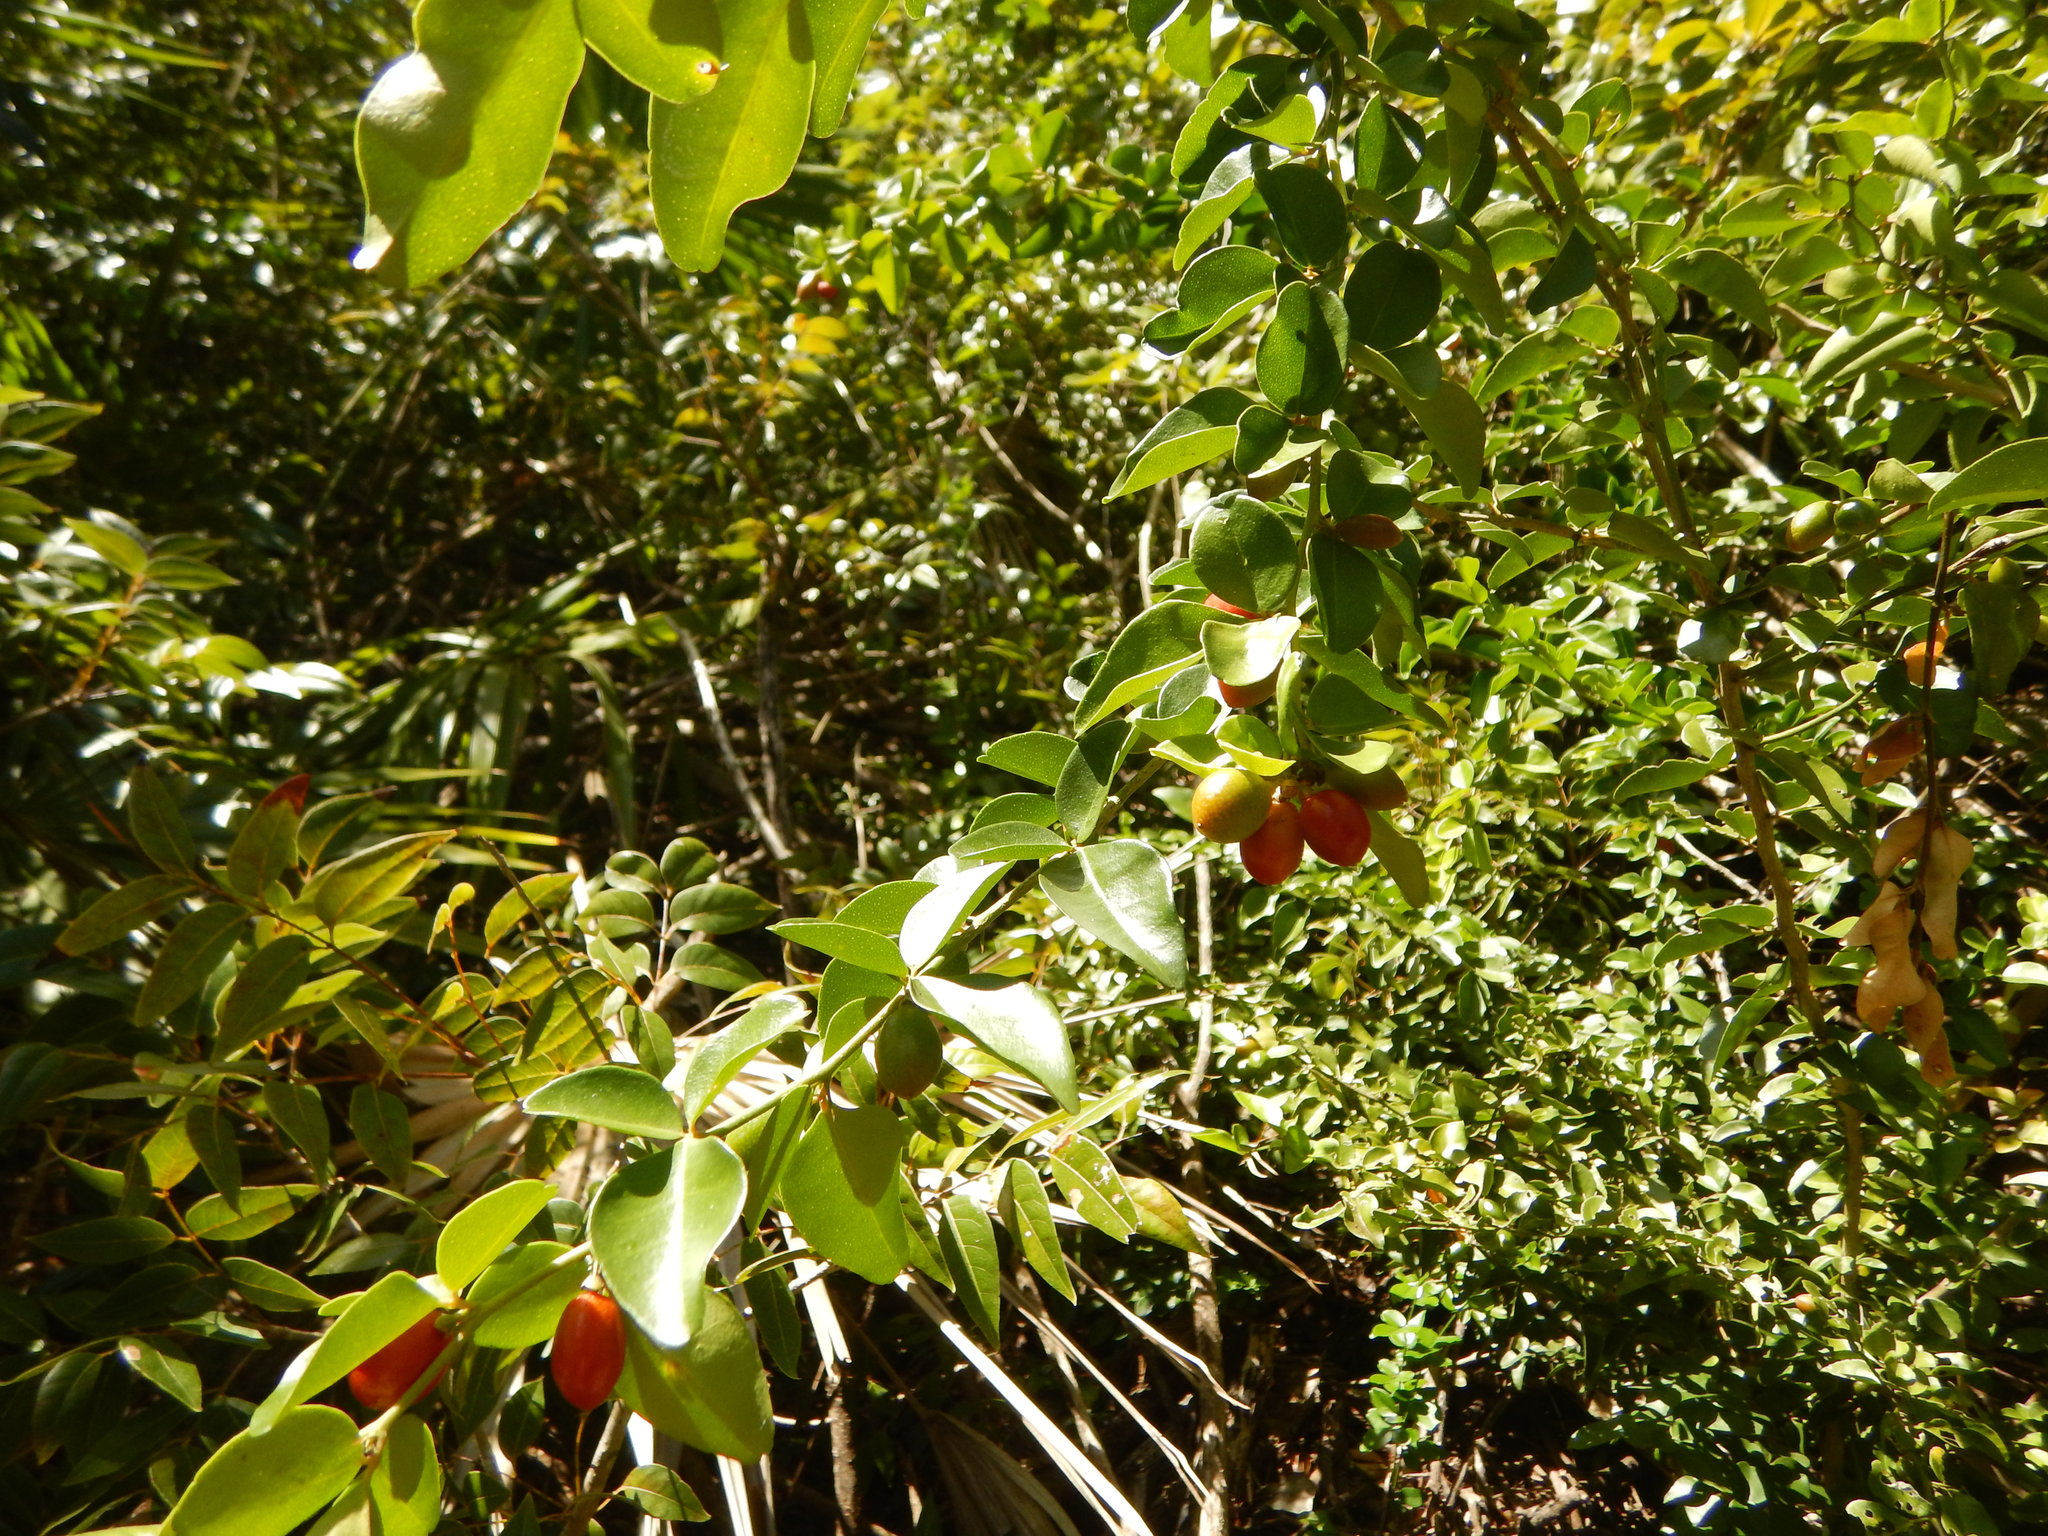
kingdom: Plantae
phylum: Tracheophyta
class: Magnoliopsida
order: Sapindales
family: Rutaceae
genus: Triphasia
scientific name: Triphasia trifolia
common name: Limeberry
